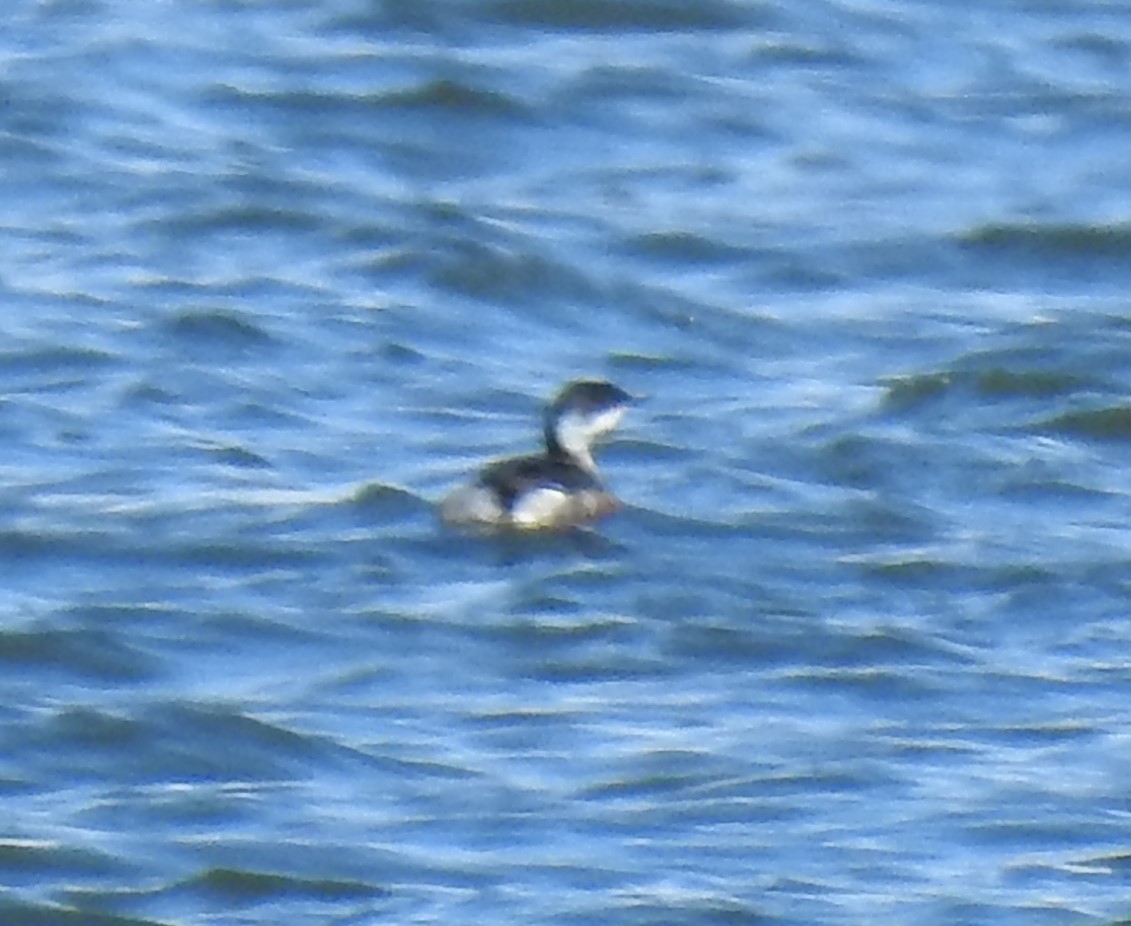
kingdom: Animalia
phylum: Chordata
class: Aves
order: Podicipediformes
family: Podicipedidae
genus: Podiceps
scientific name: Podiceps auritus
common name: Horned grebe
